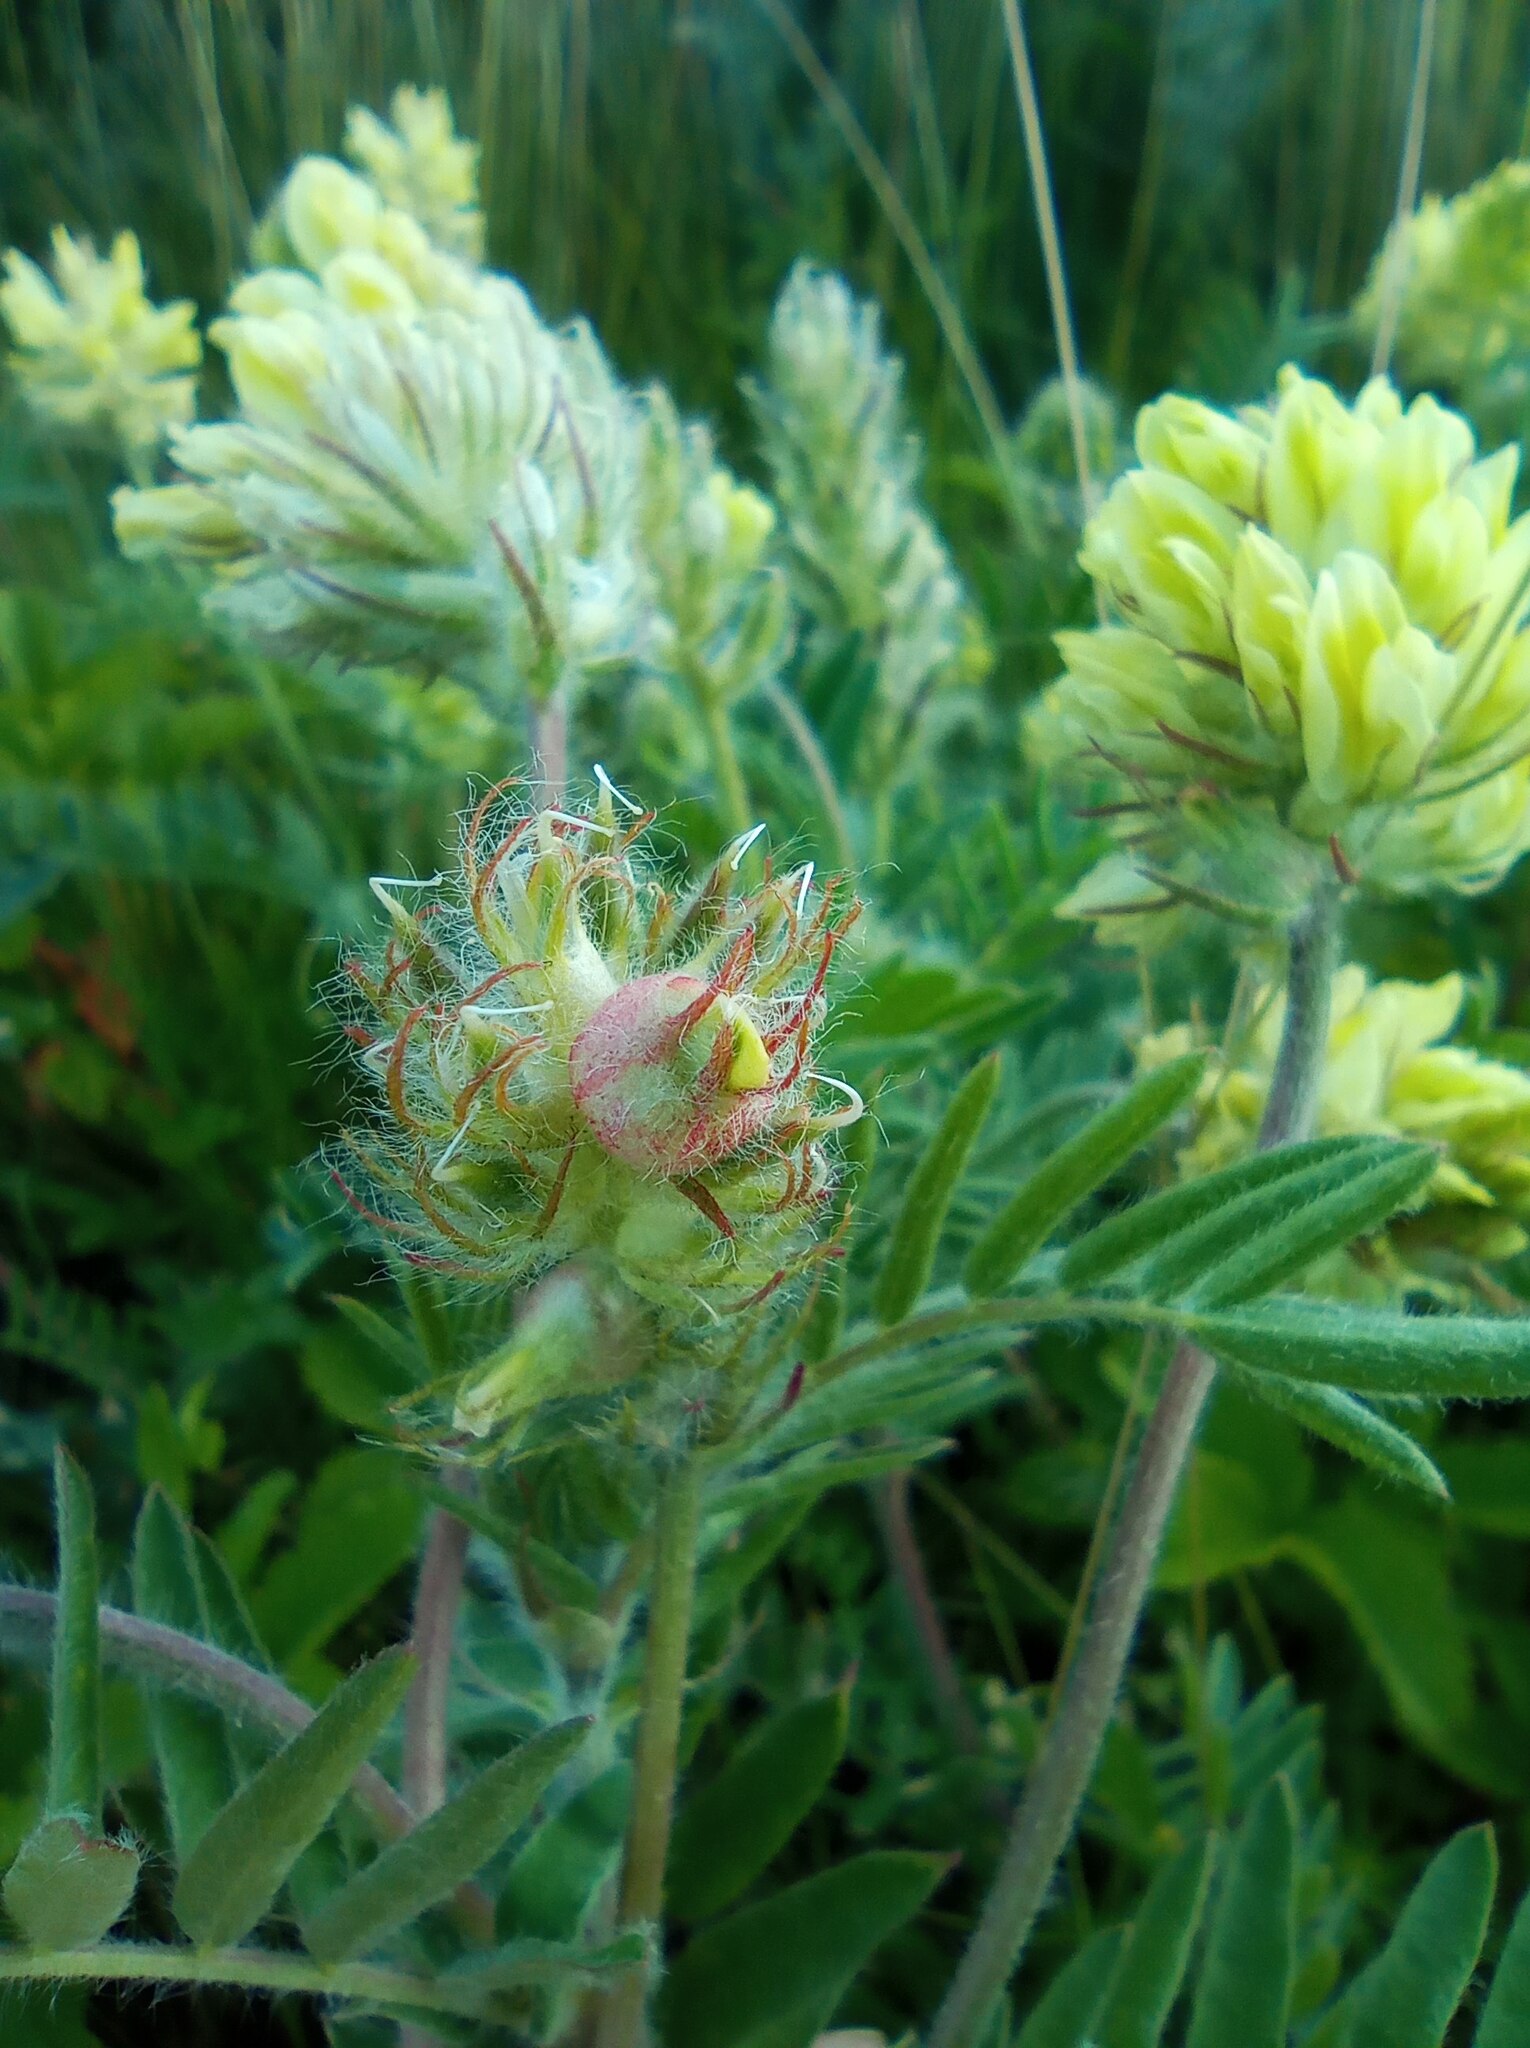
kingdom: Plantae
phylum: Tracheophyta
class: Magnoliopsida
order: Fabales
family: Fabaceae
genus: Oxytropis
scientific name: Oxytropis pilosa
